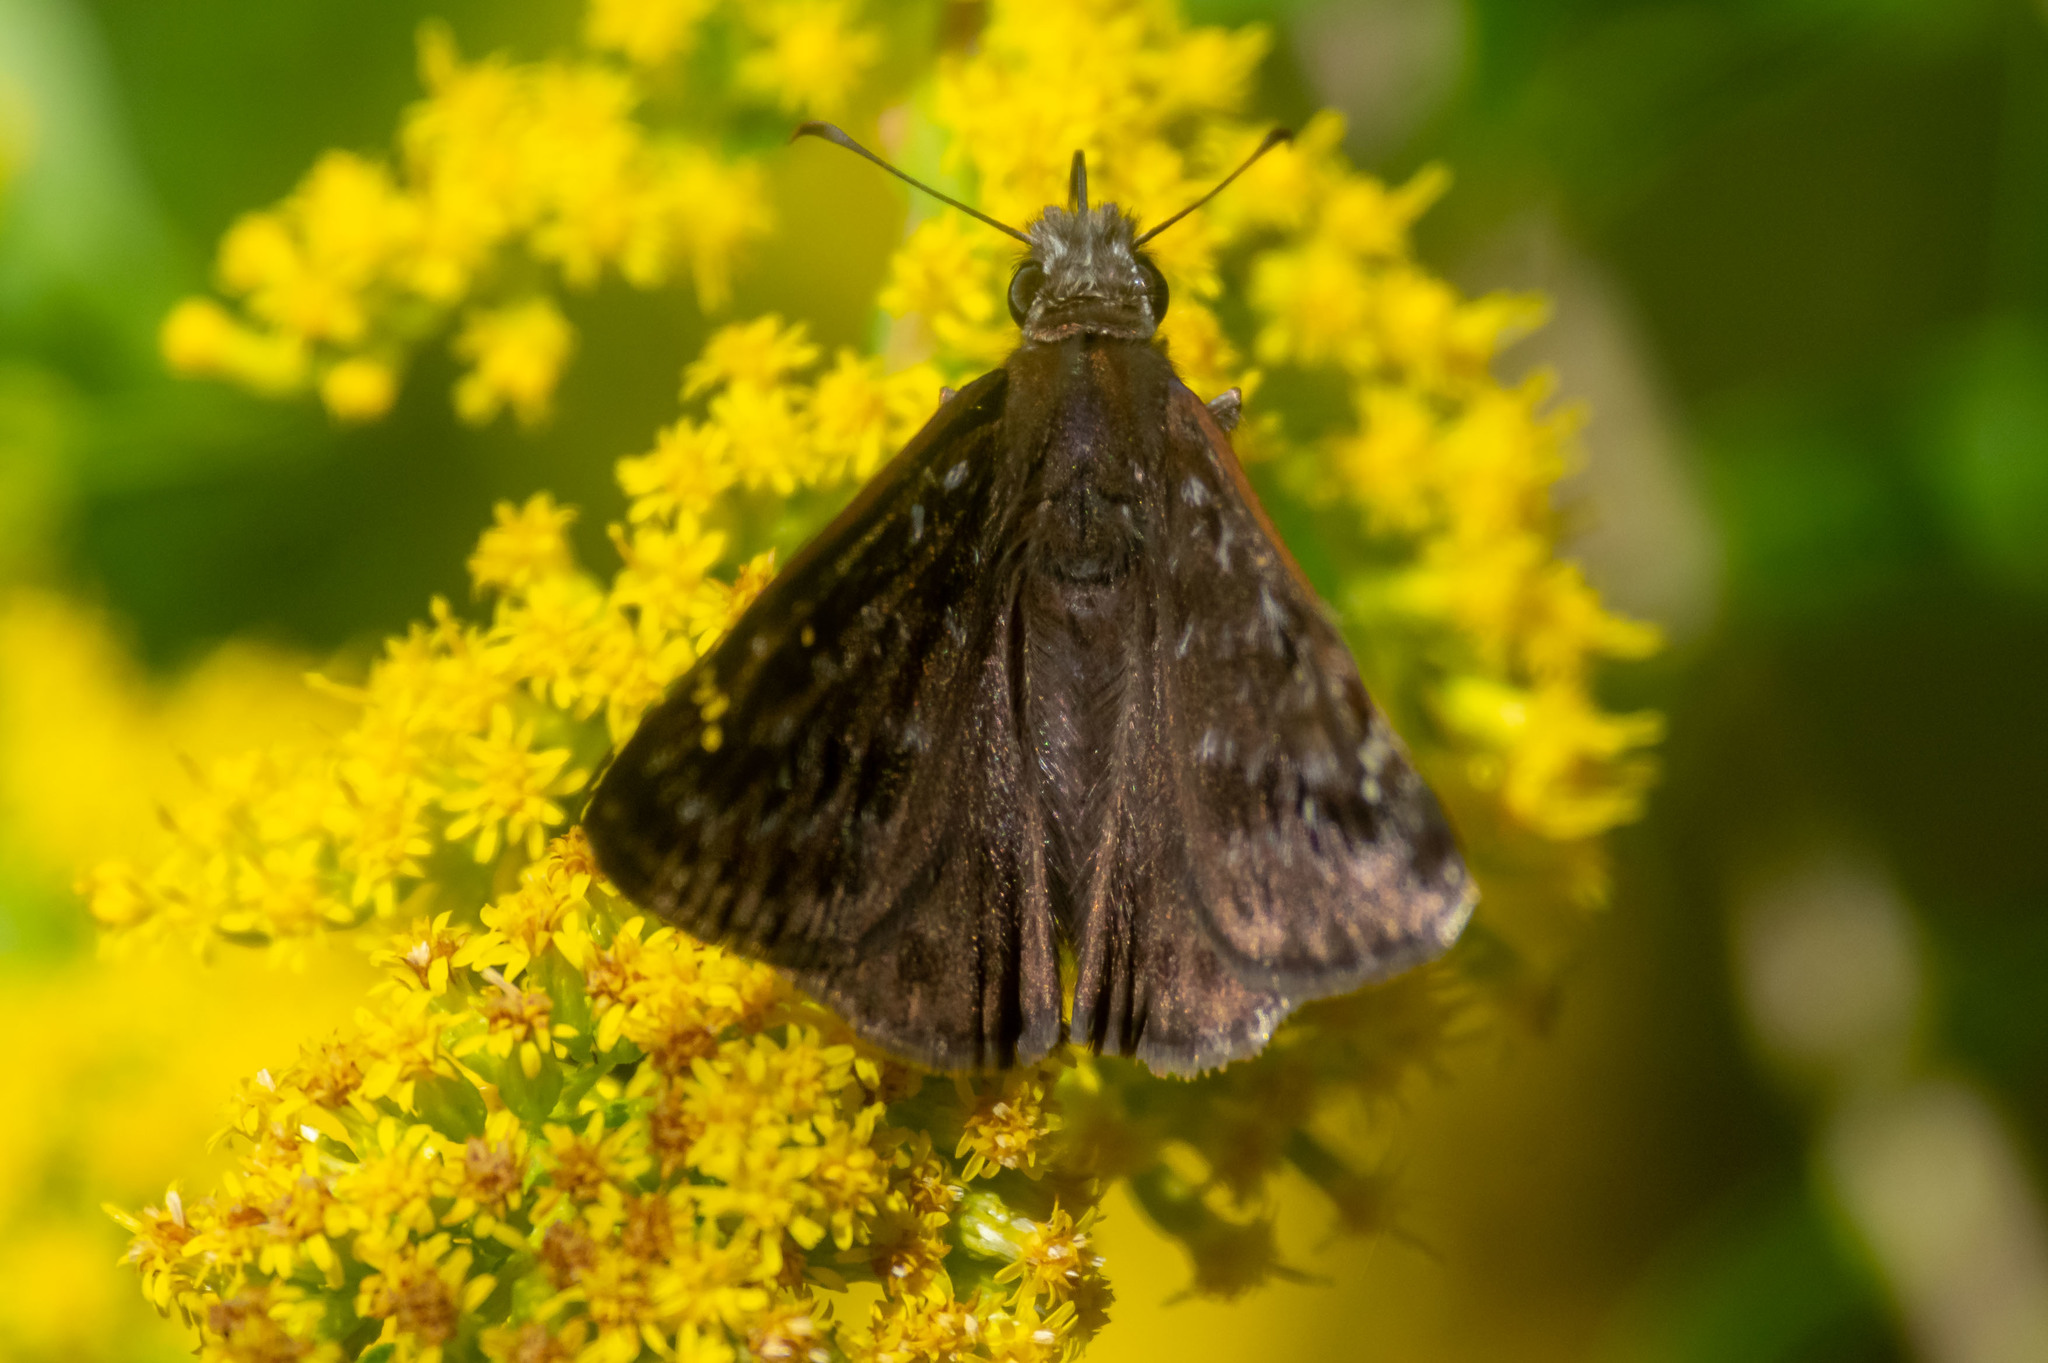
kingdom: Animalia
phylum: Arthropoda
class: Insecta
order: Lepidoptera
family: Hesperiidae
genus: Erynnis
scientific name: Erynnis horatius
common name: Horace's duskywing
